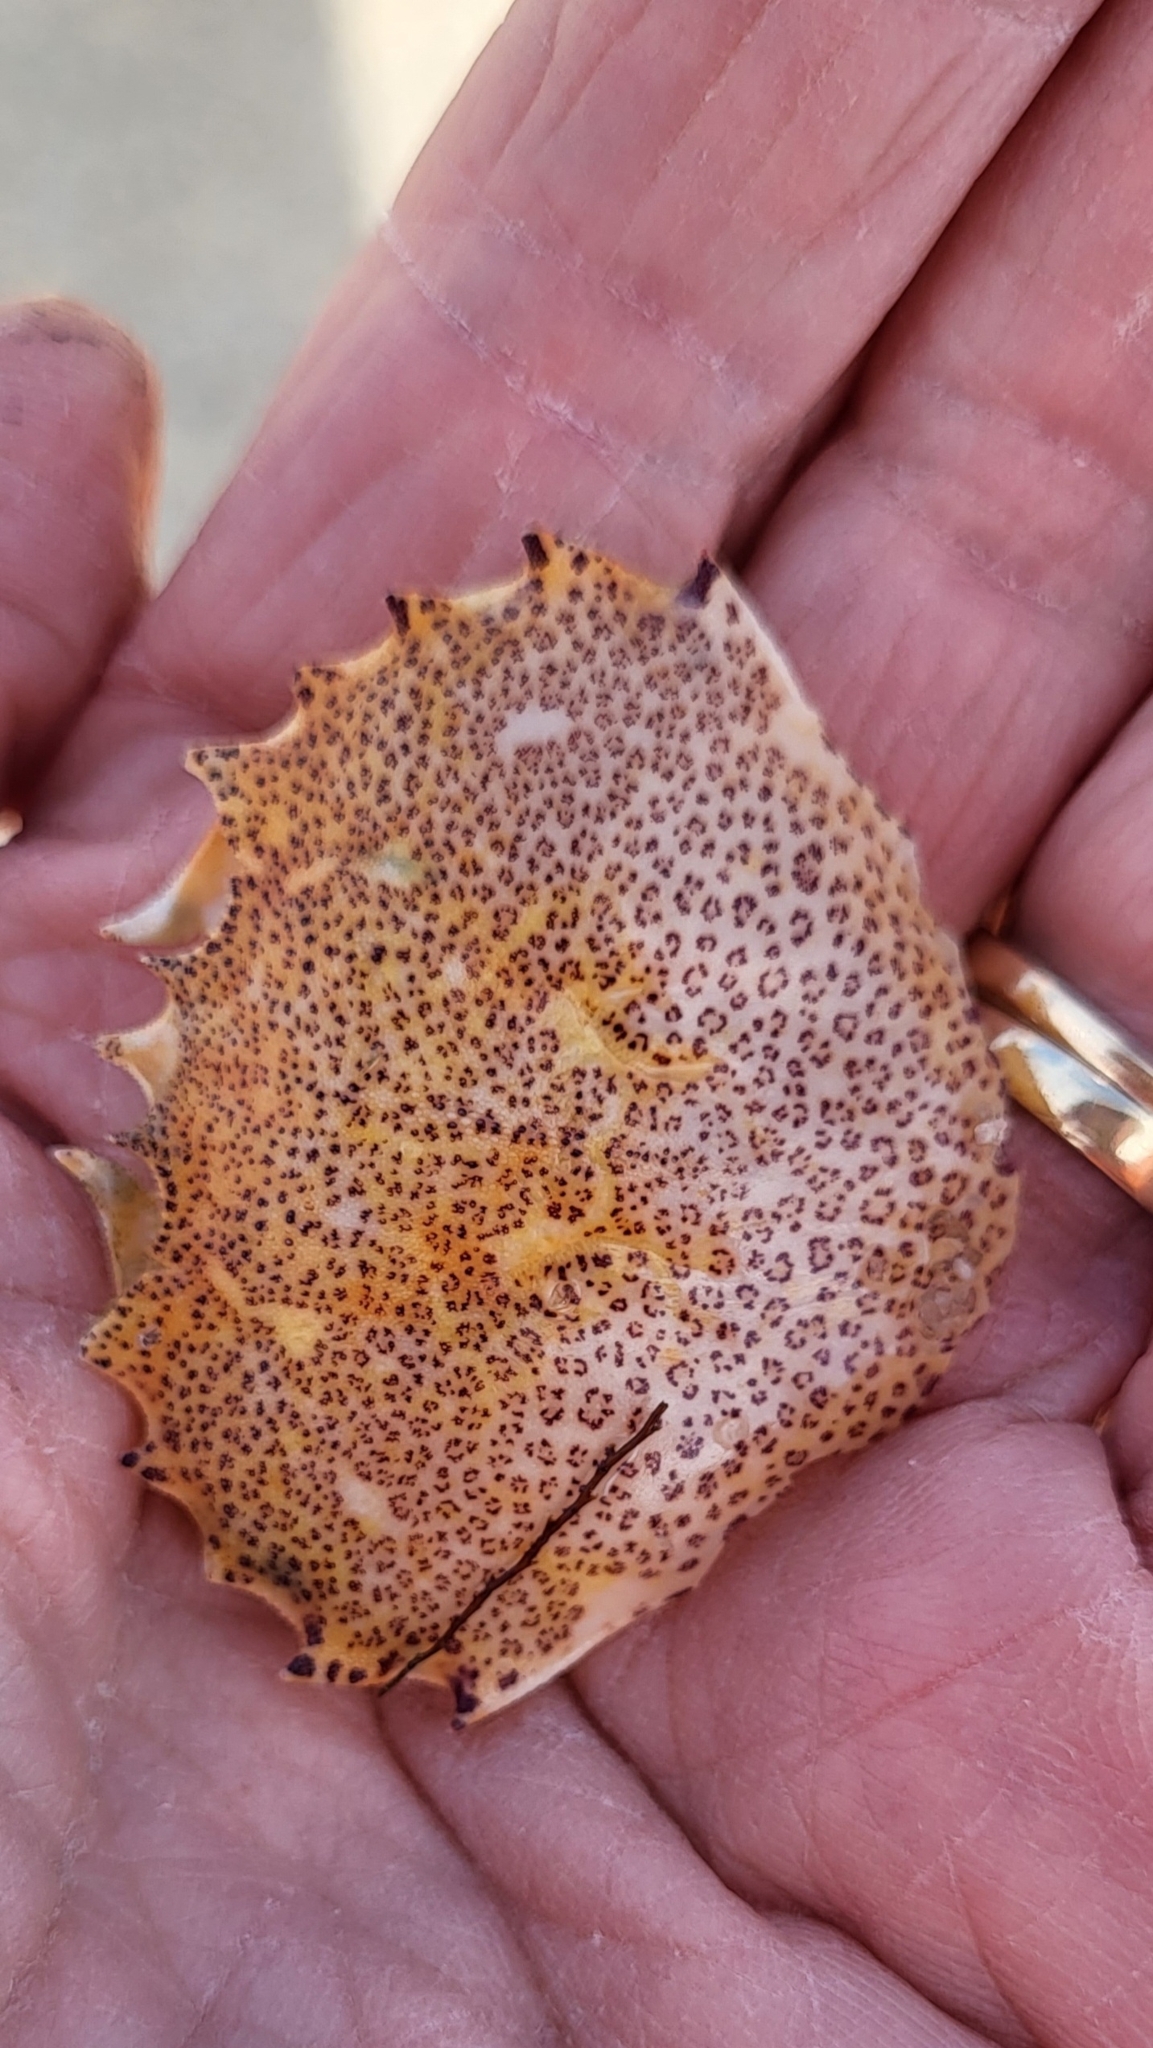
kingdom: Animalia
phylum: Arthropoda
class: Malacostraca
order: Decapoda
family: Ovalipidae
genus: Ovalipes
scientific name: Ovalipes ocellatus
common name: Lady crab
